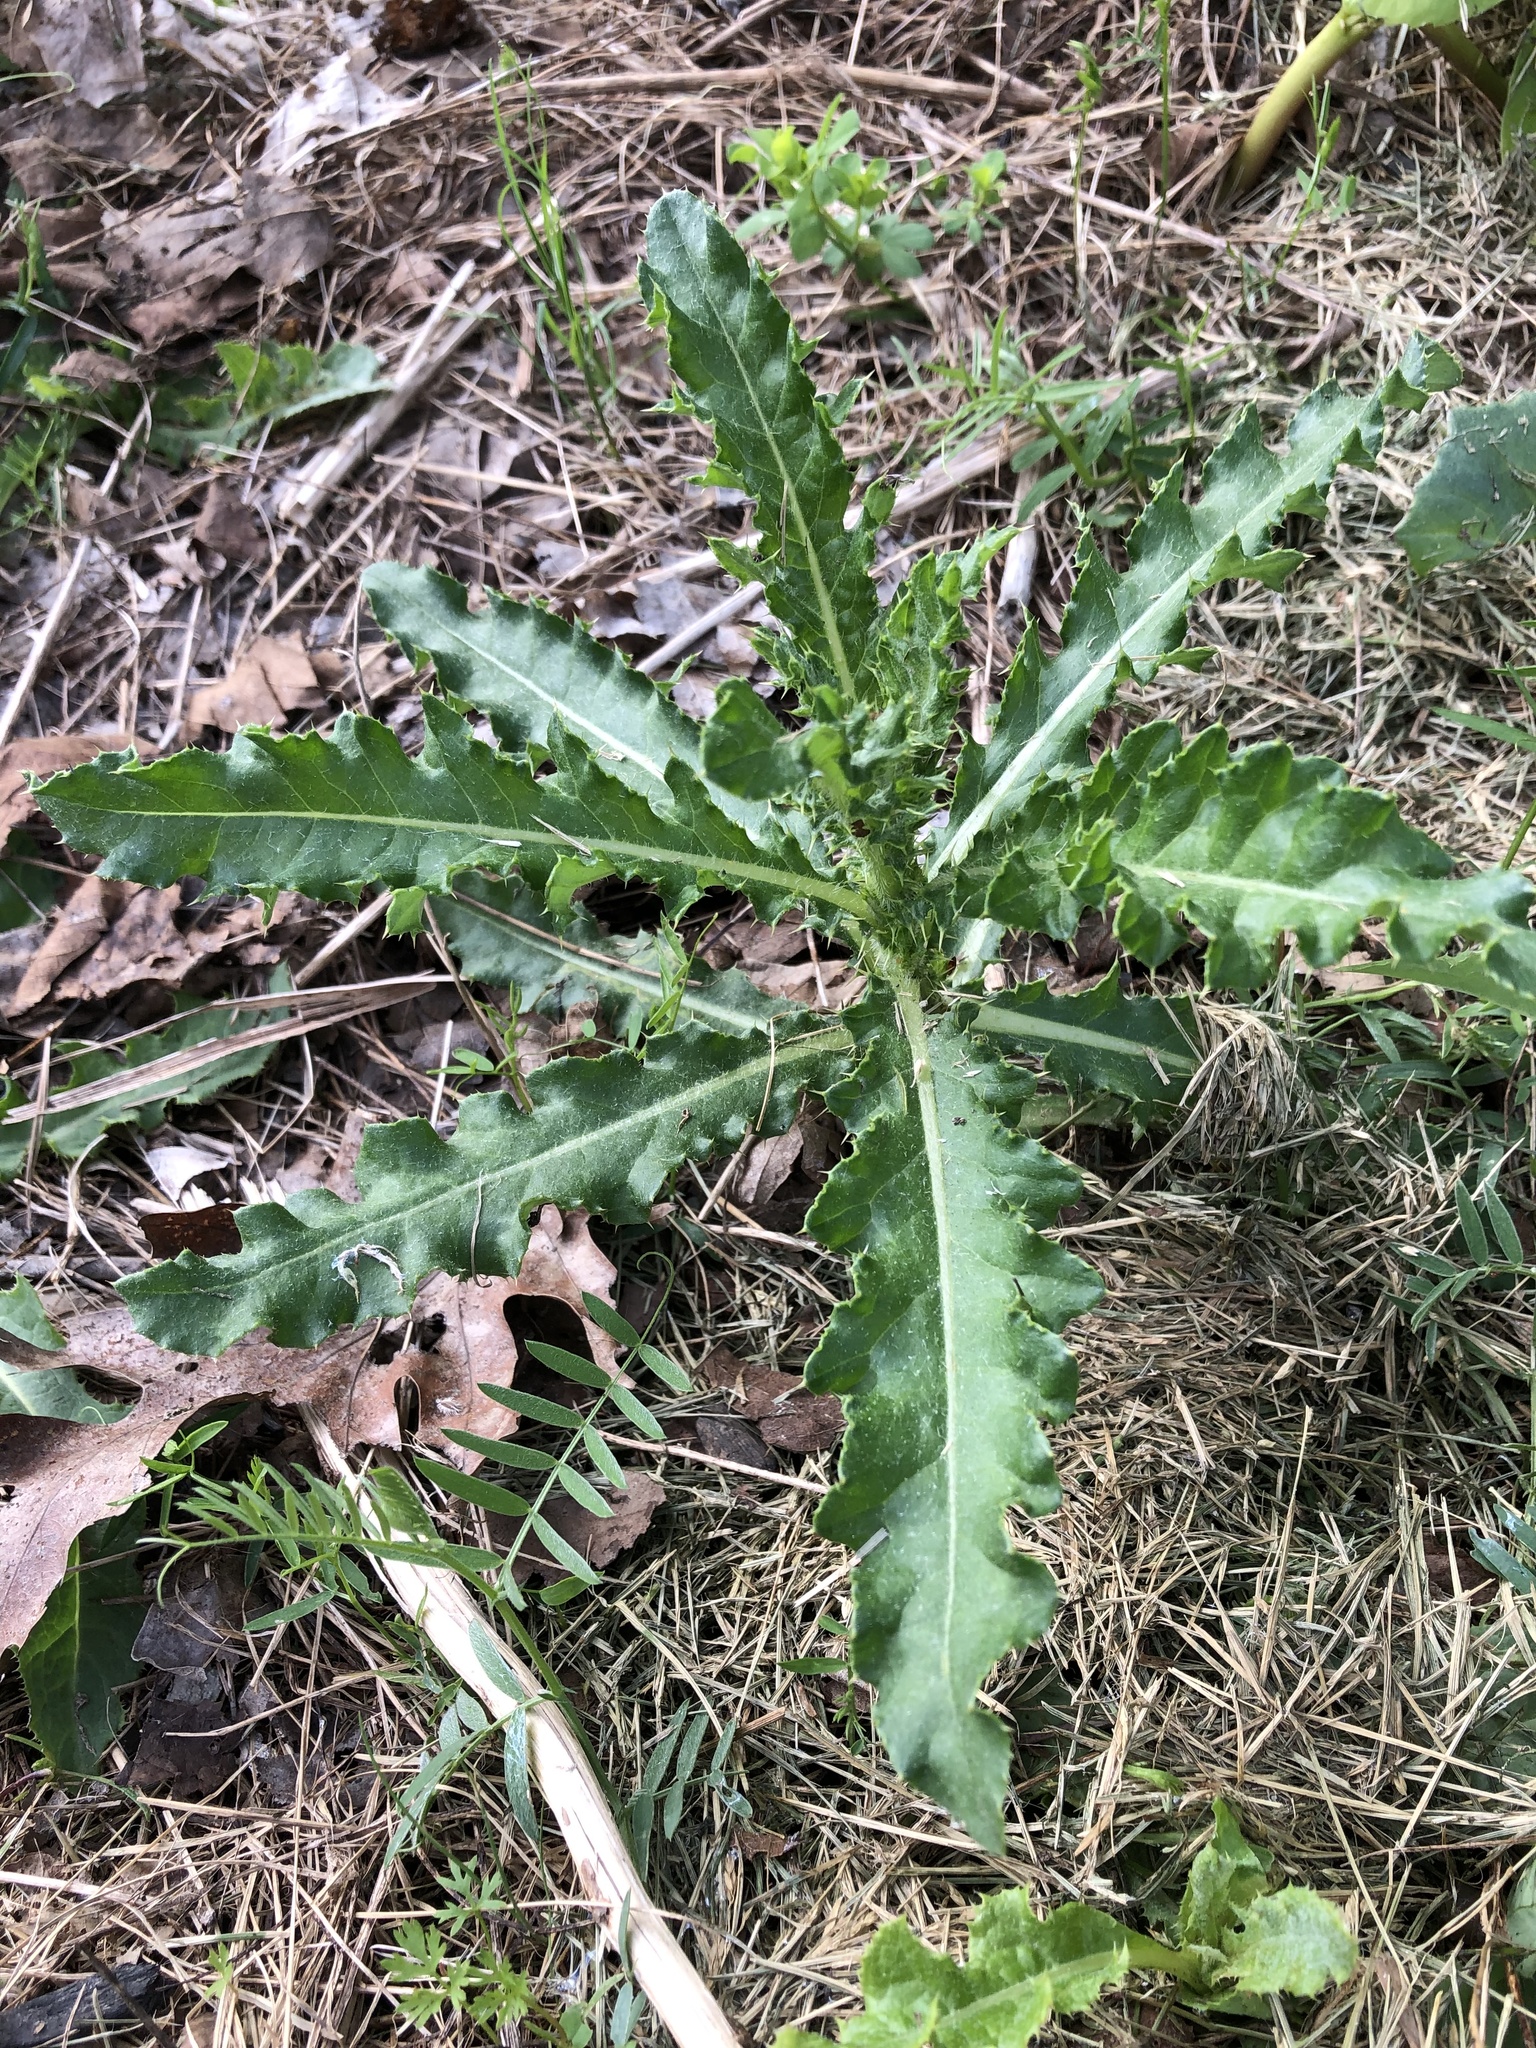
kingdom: Plantae
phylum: Tracheophyta
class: Magnoliopsida
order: Asterales
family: Asteraceae
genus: Cirsium
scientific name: Cirsium arvense
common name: Creeping thistle
